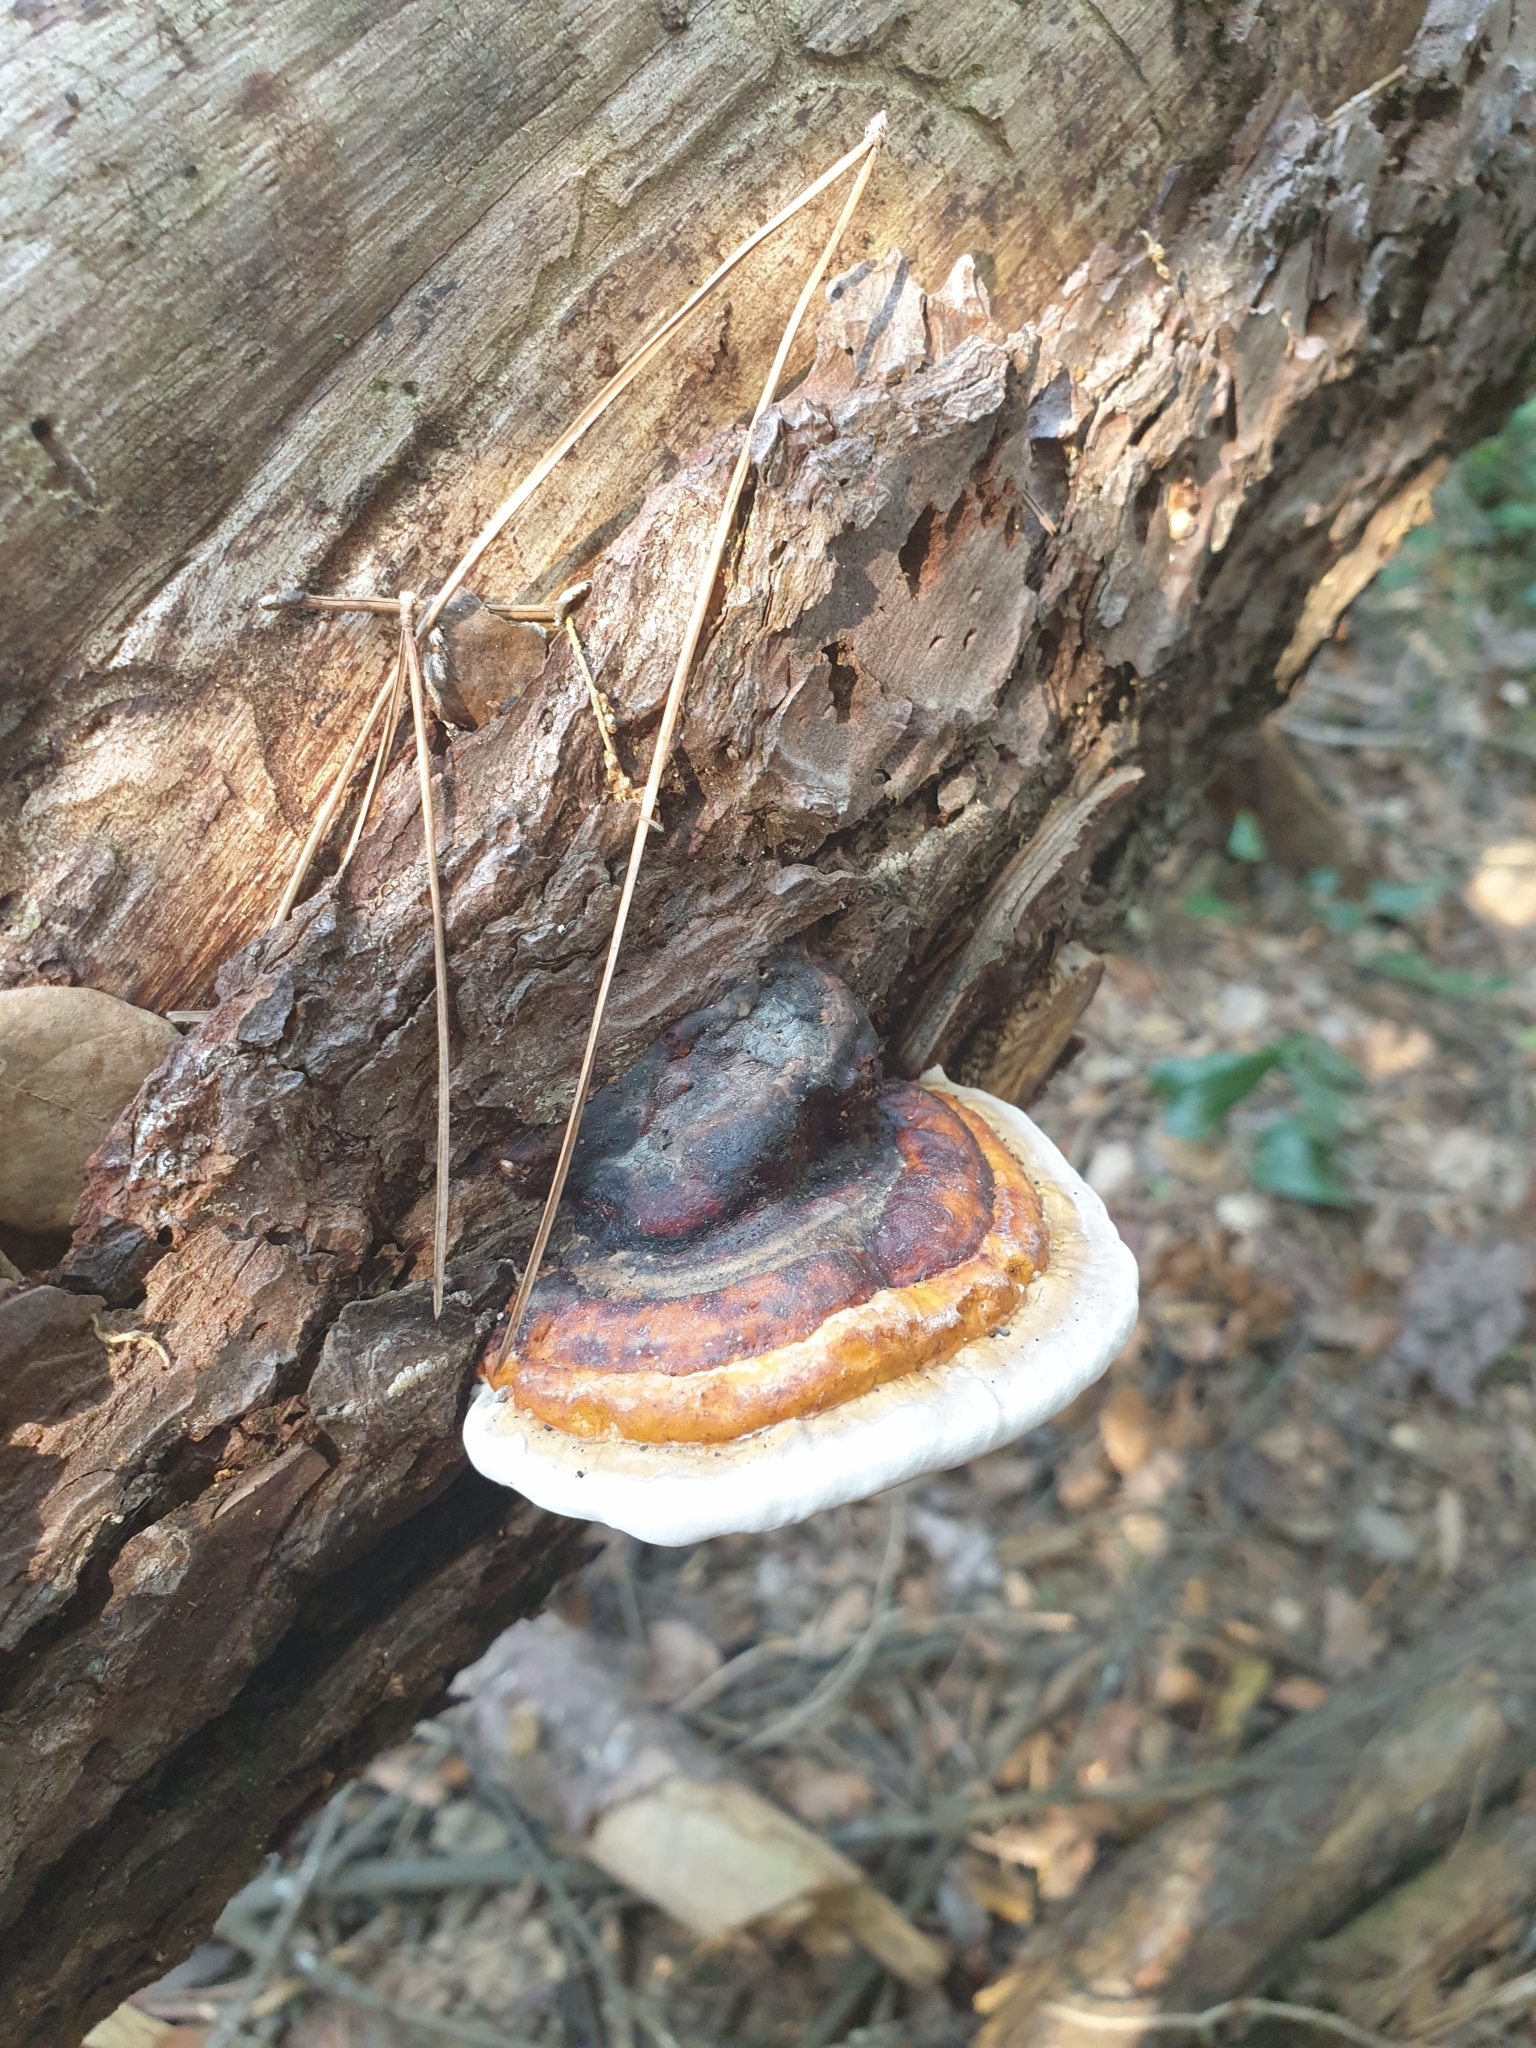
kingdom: Fungi
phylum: Basidiomycota
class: Agaricomycetes
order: Polyporales
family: Fomitopsidaceae
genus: Fomitopsis
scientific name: Fomitopsis pinicola
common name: Red-belted bracket
